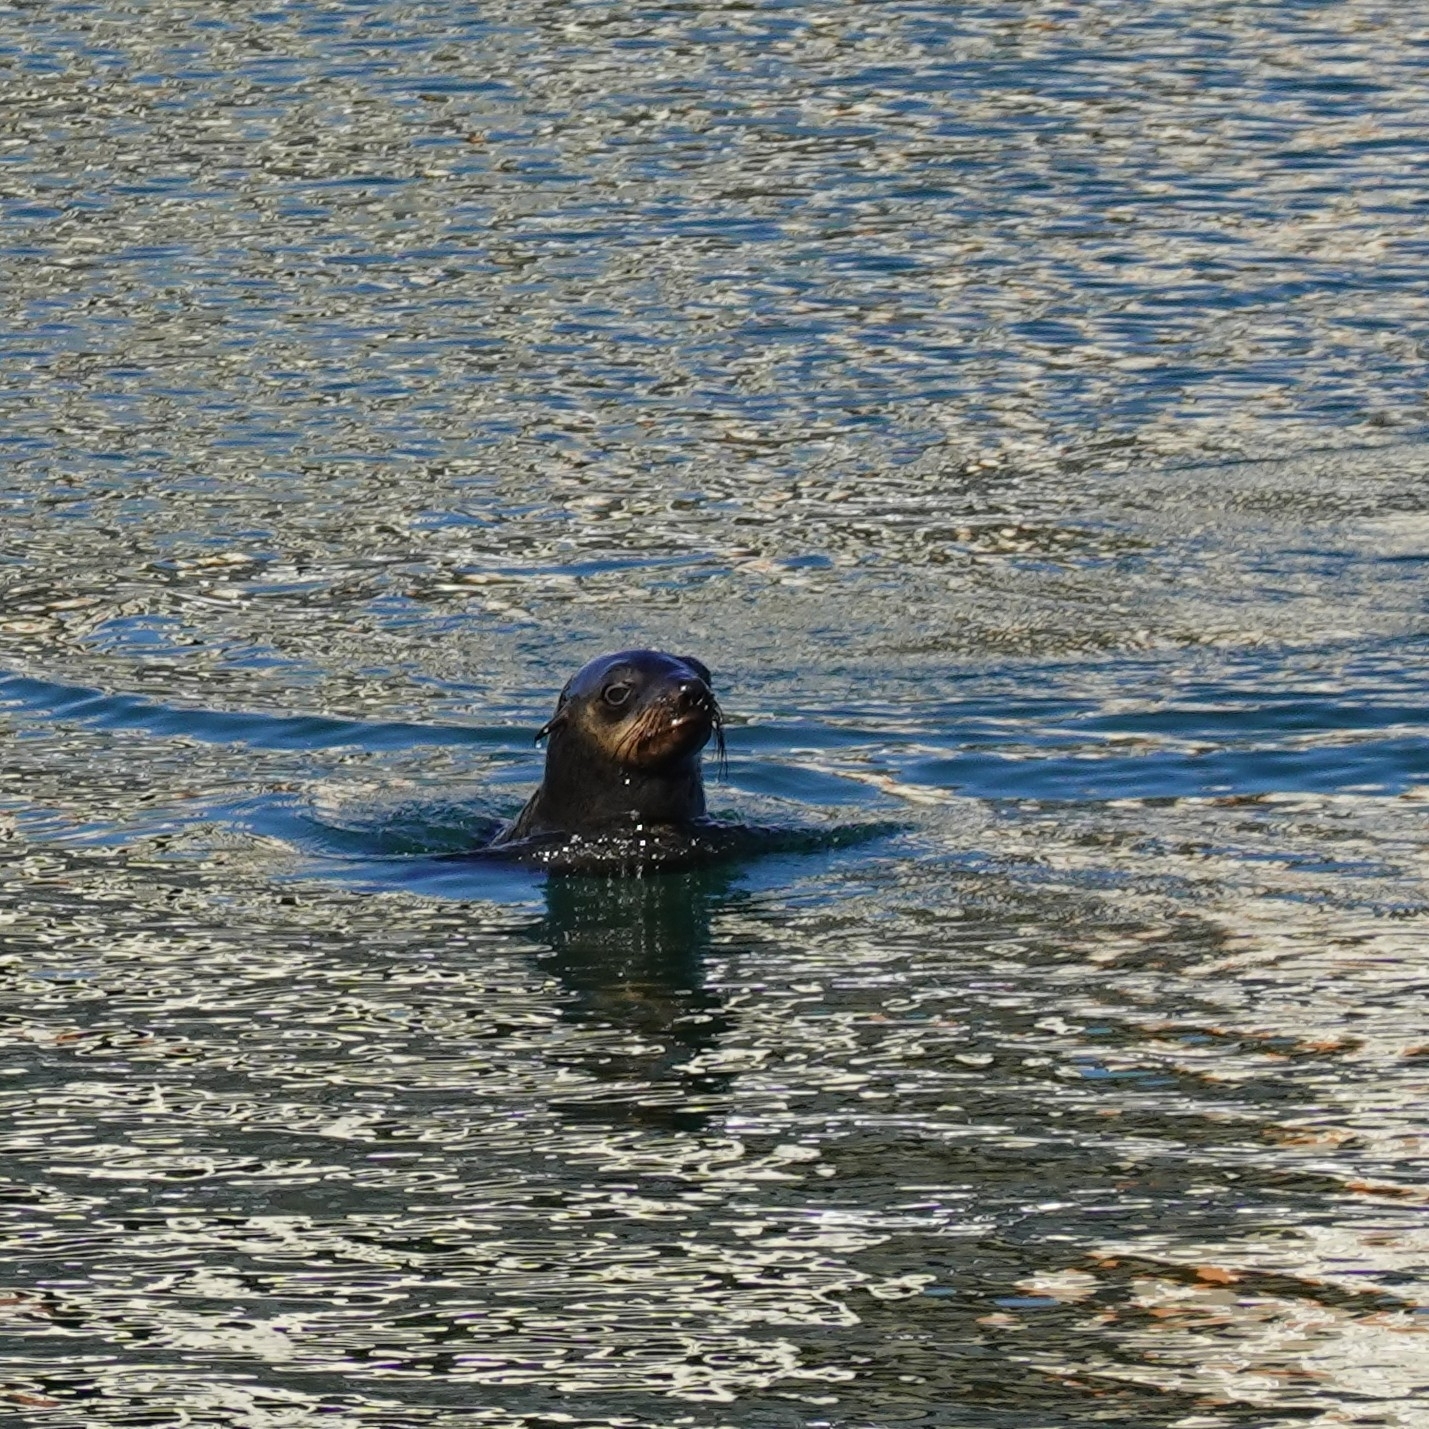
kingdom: Animalia
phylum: Chordata
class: Mammalia
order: Carnivora
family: Otariidae
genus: Arctocephalus
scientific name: Arctocephalus pusillus
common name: Brown fur seal
